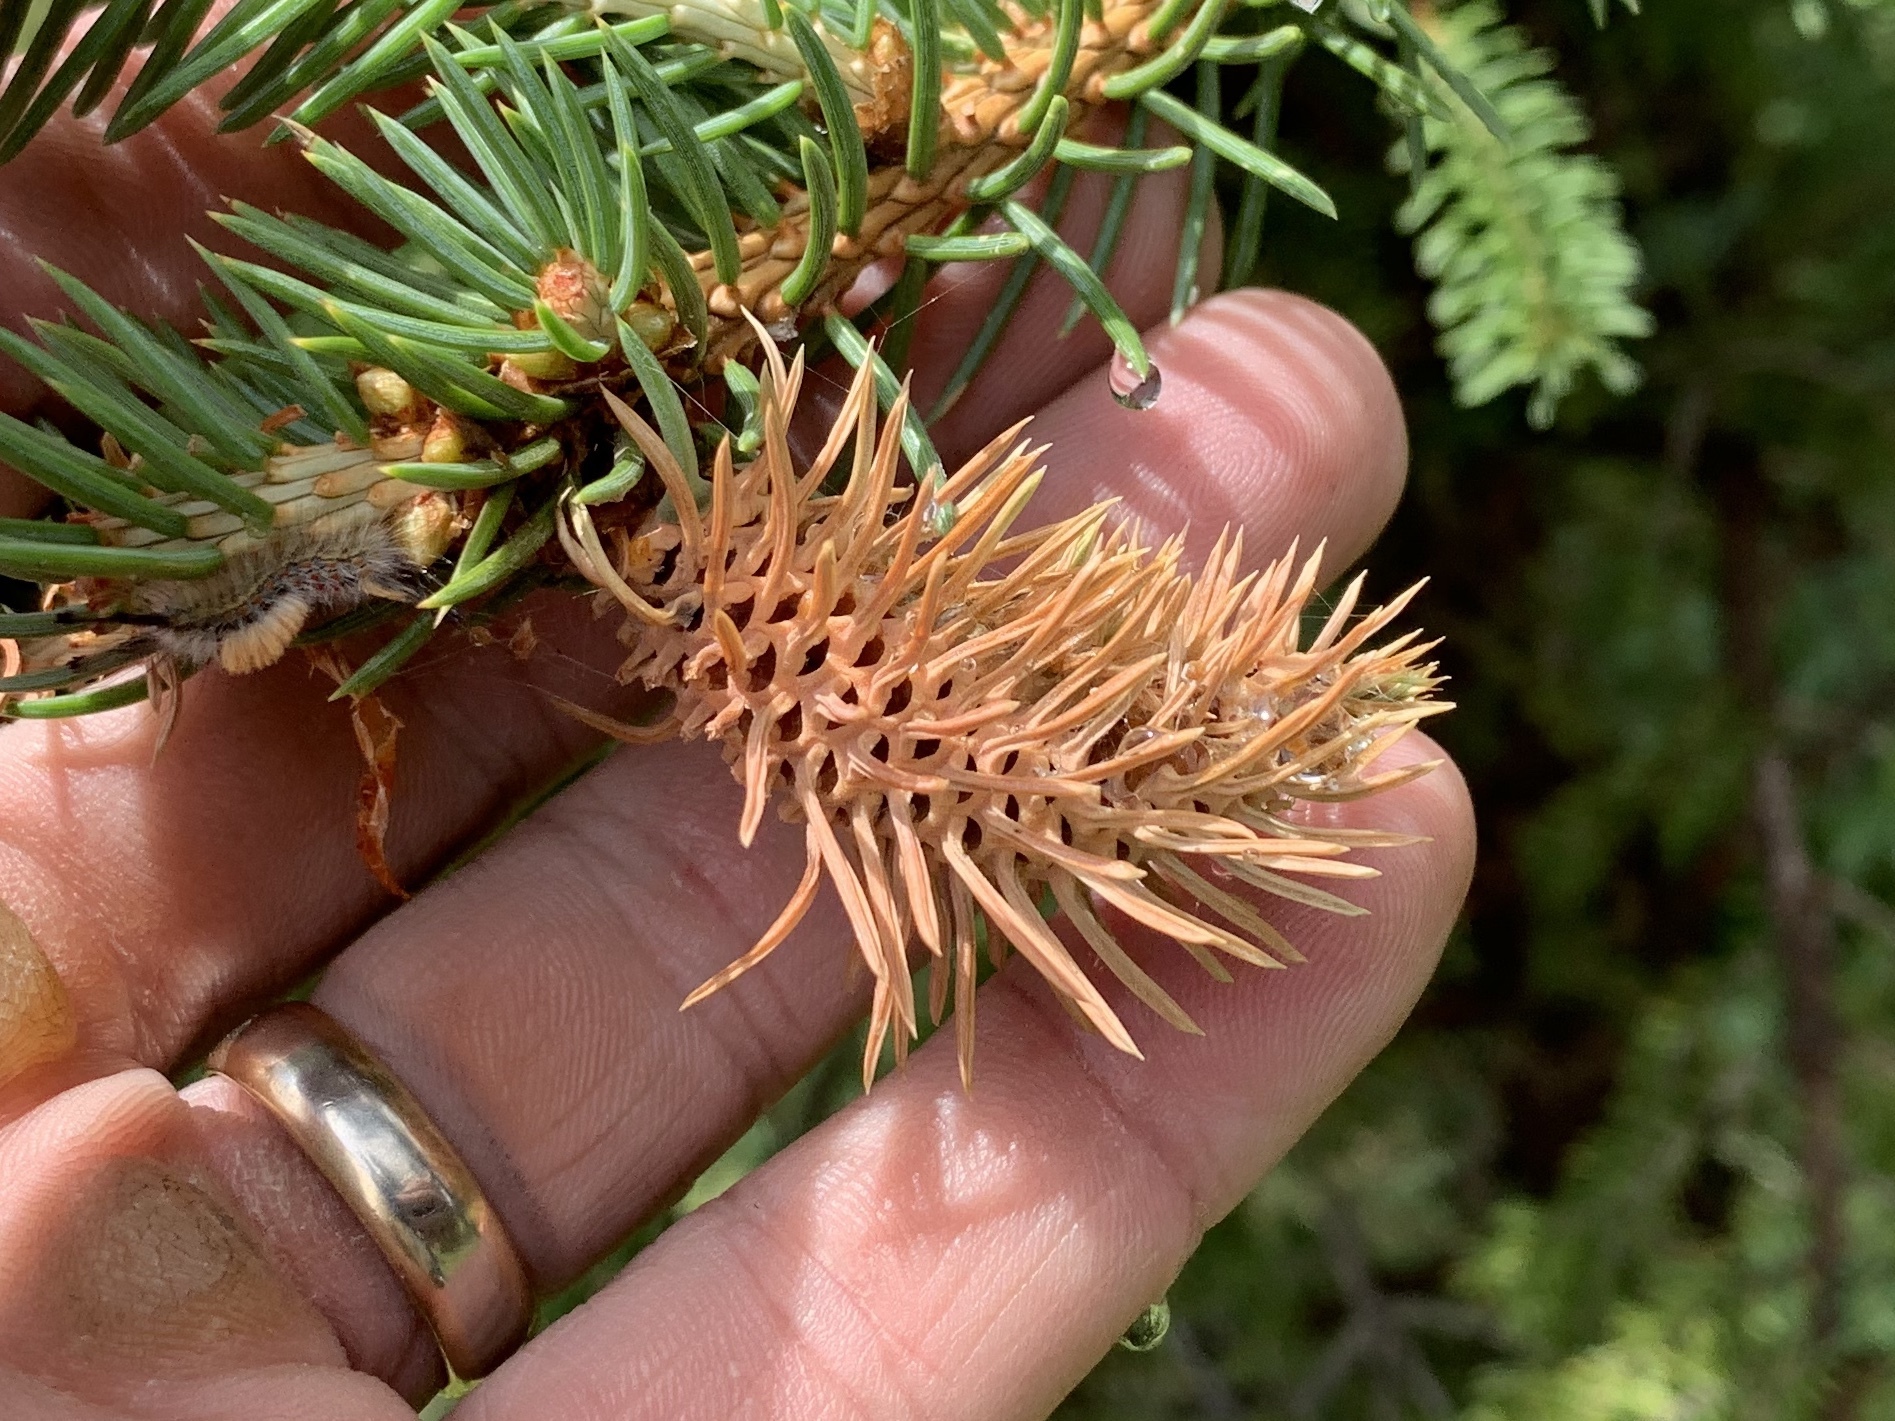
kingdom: Animalia
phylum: Arthropoda
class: Insecta
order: Hemiptera
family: Adelgidae
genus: Adelges
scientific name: Adelges cooleyi
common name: Cooley spruce gall adelgid
